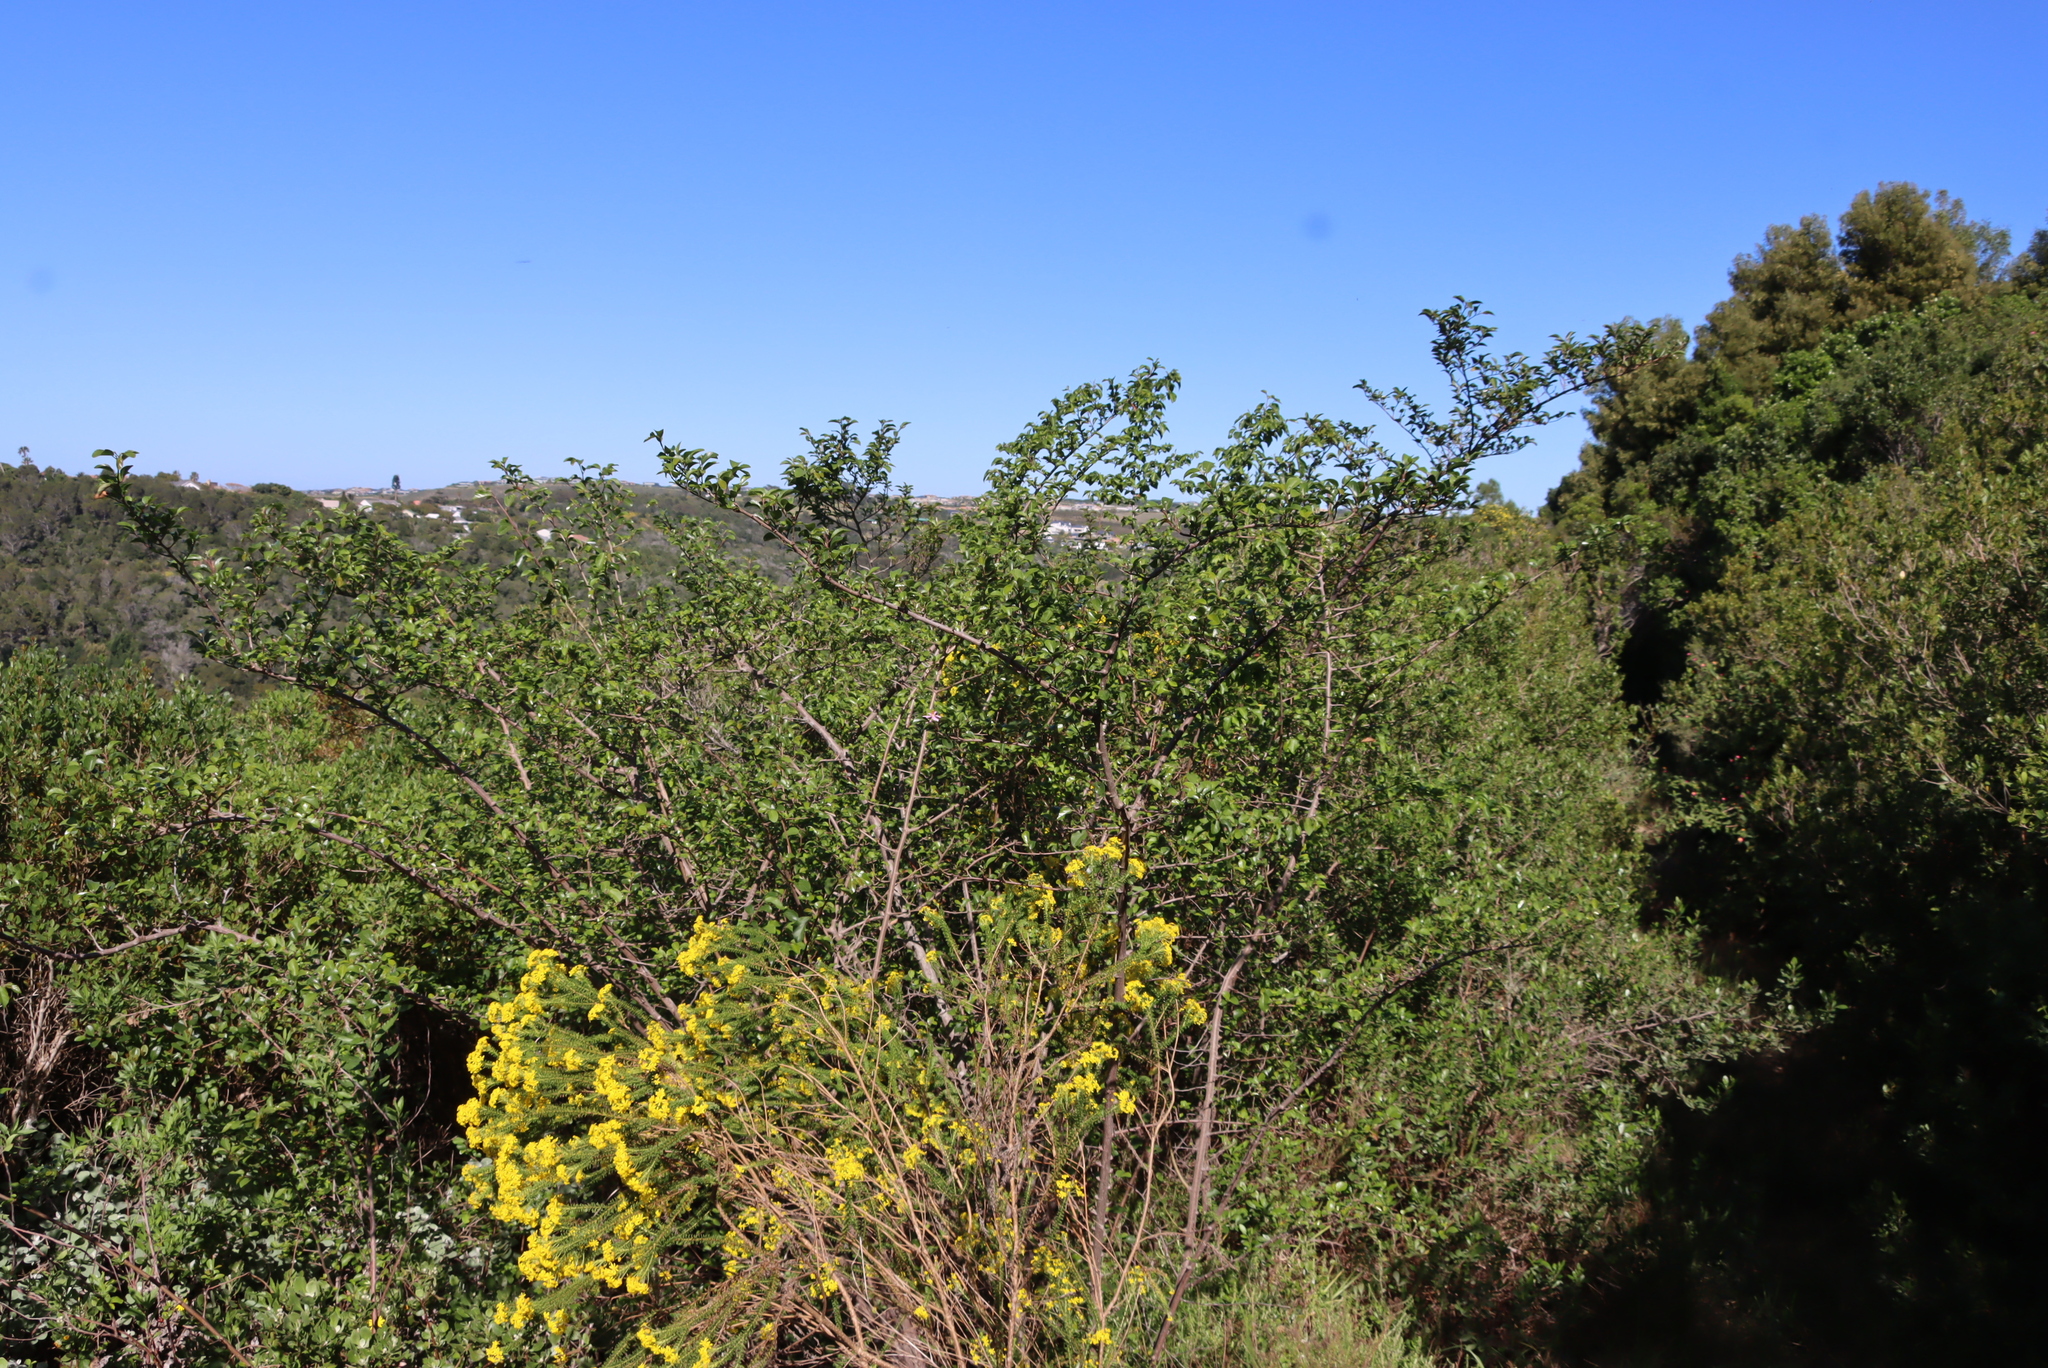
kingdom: Plantae
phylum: Tracheophyta
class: Magnoliopsida
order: Malvales
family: Malvaceae
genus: Grewia
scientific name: Grewia occidentalis
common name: Crossberry
